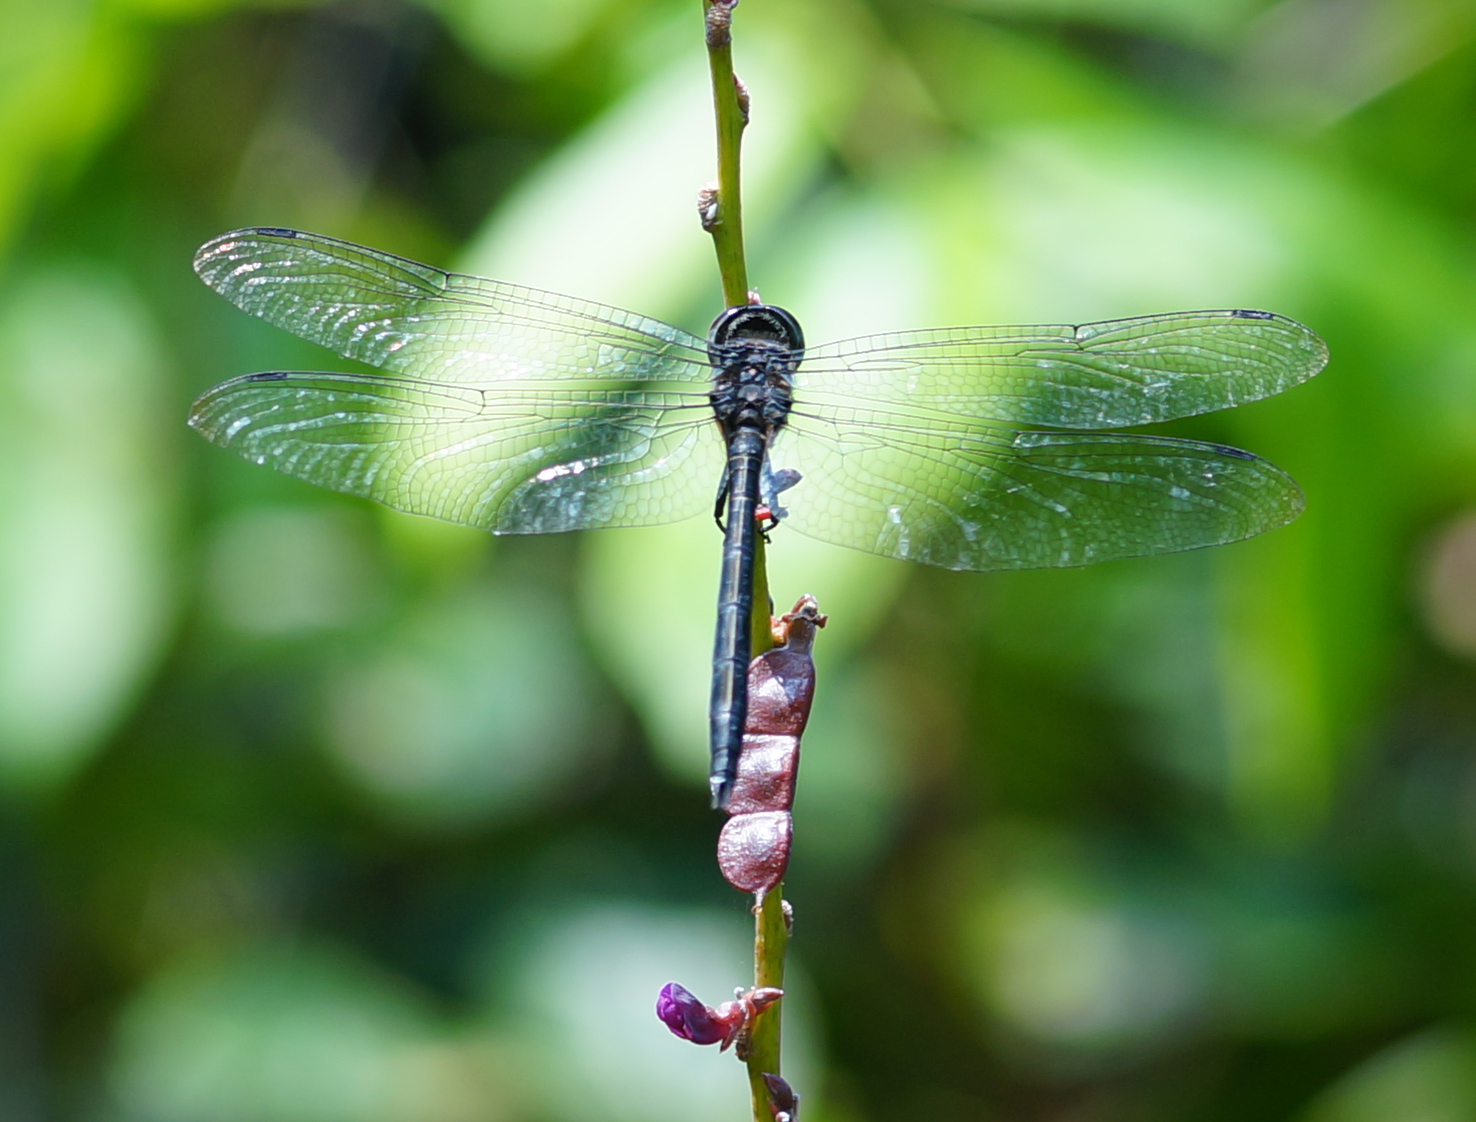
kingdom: Animalia
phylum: Arthropoda
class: Insecta
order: Odonata
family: Libellulidae
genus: Zygonyx
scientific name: Zygonyx iris
